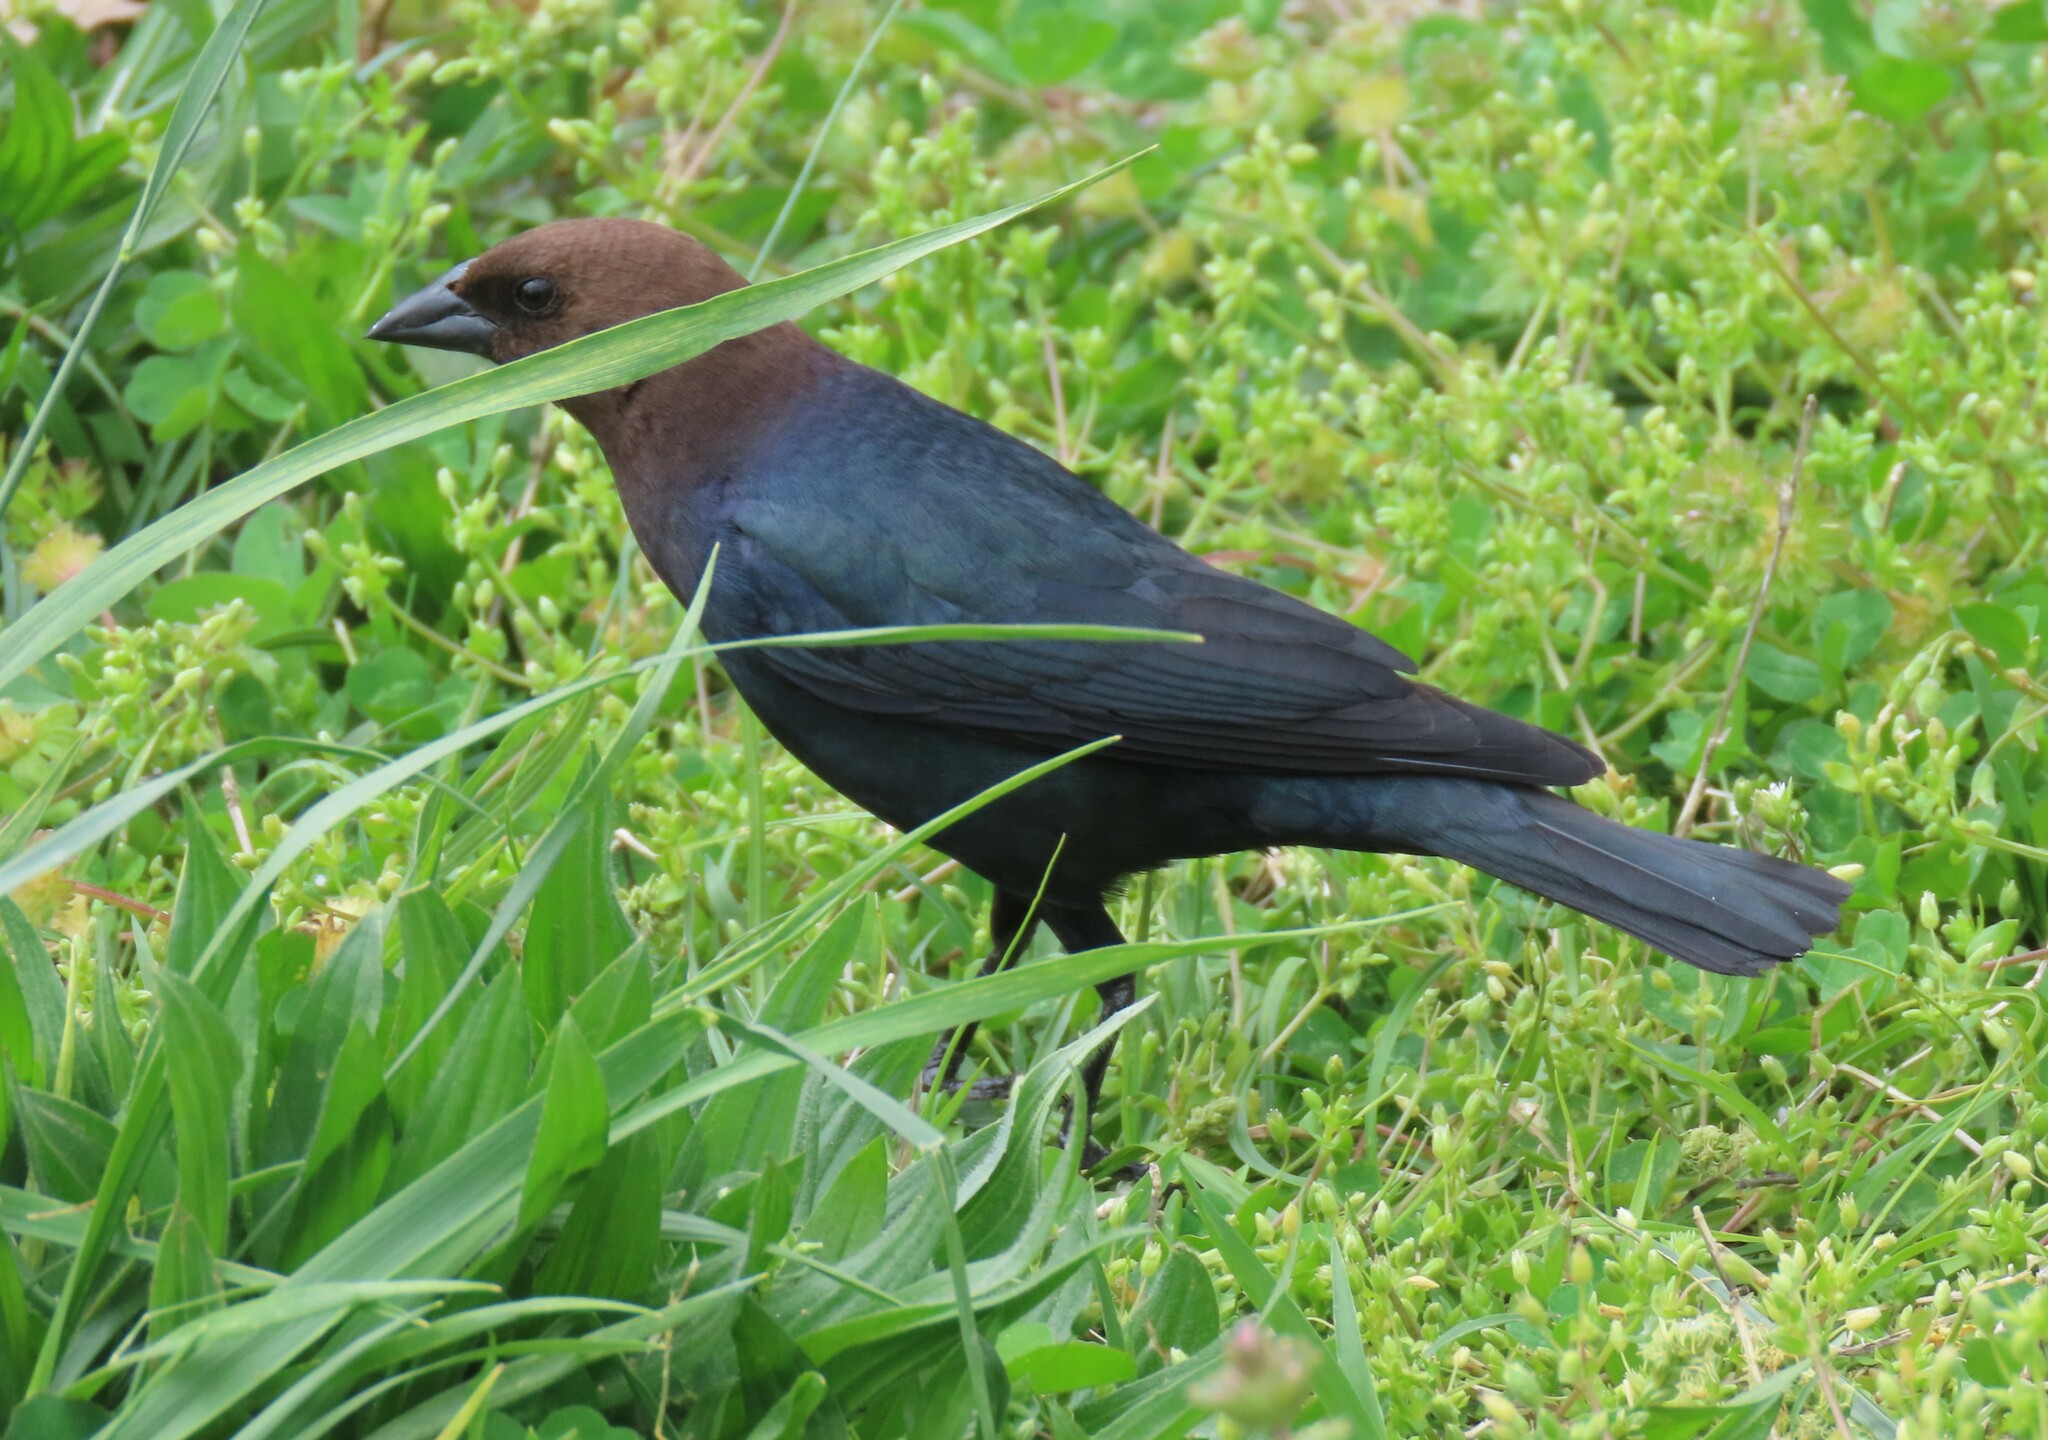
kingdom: Animalia
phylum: Chordata
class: Aves
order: Passeriformes
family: Icteridae
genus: Molothrus
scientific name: Molothrus ater
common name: Brown-headed cowbird
